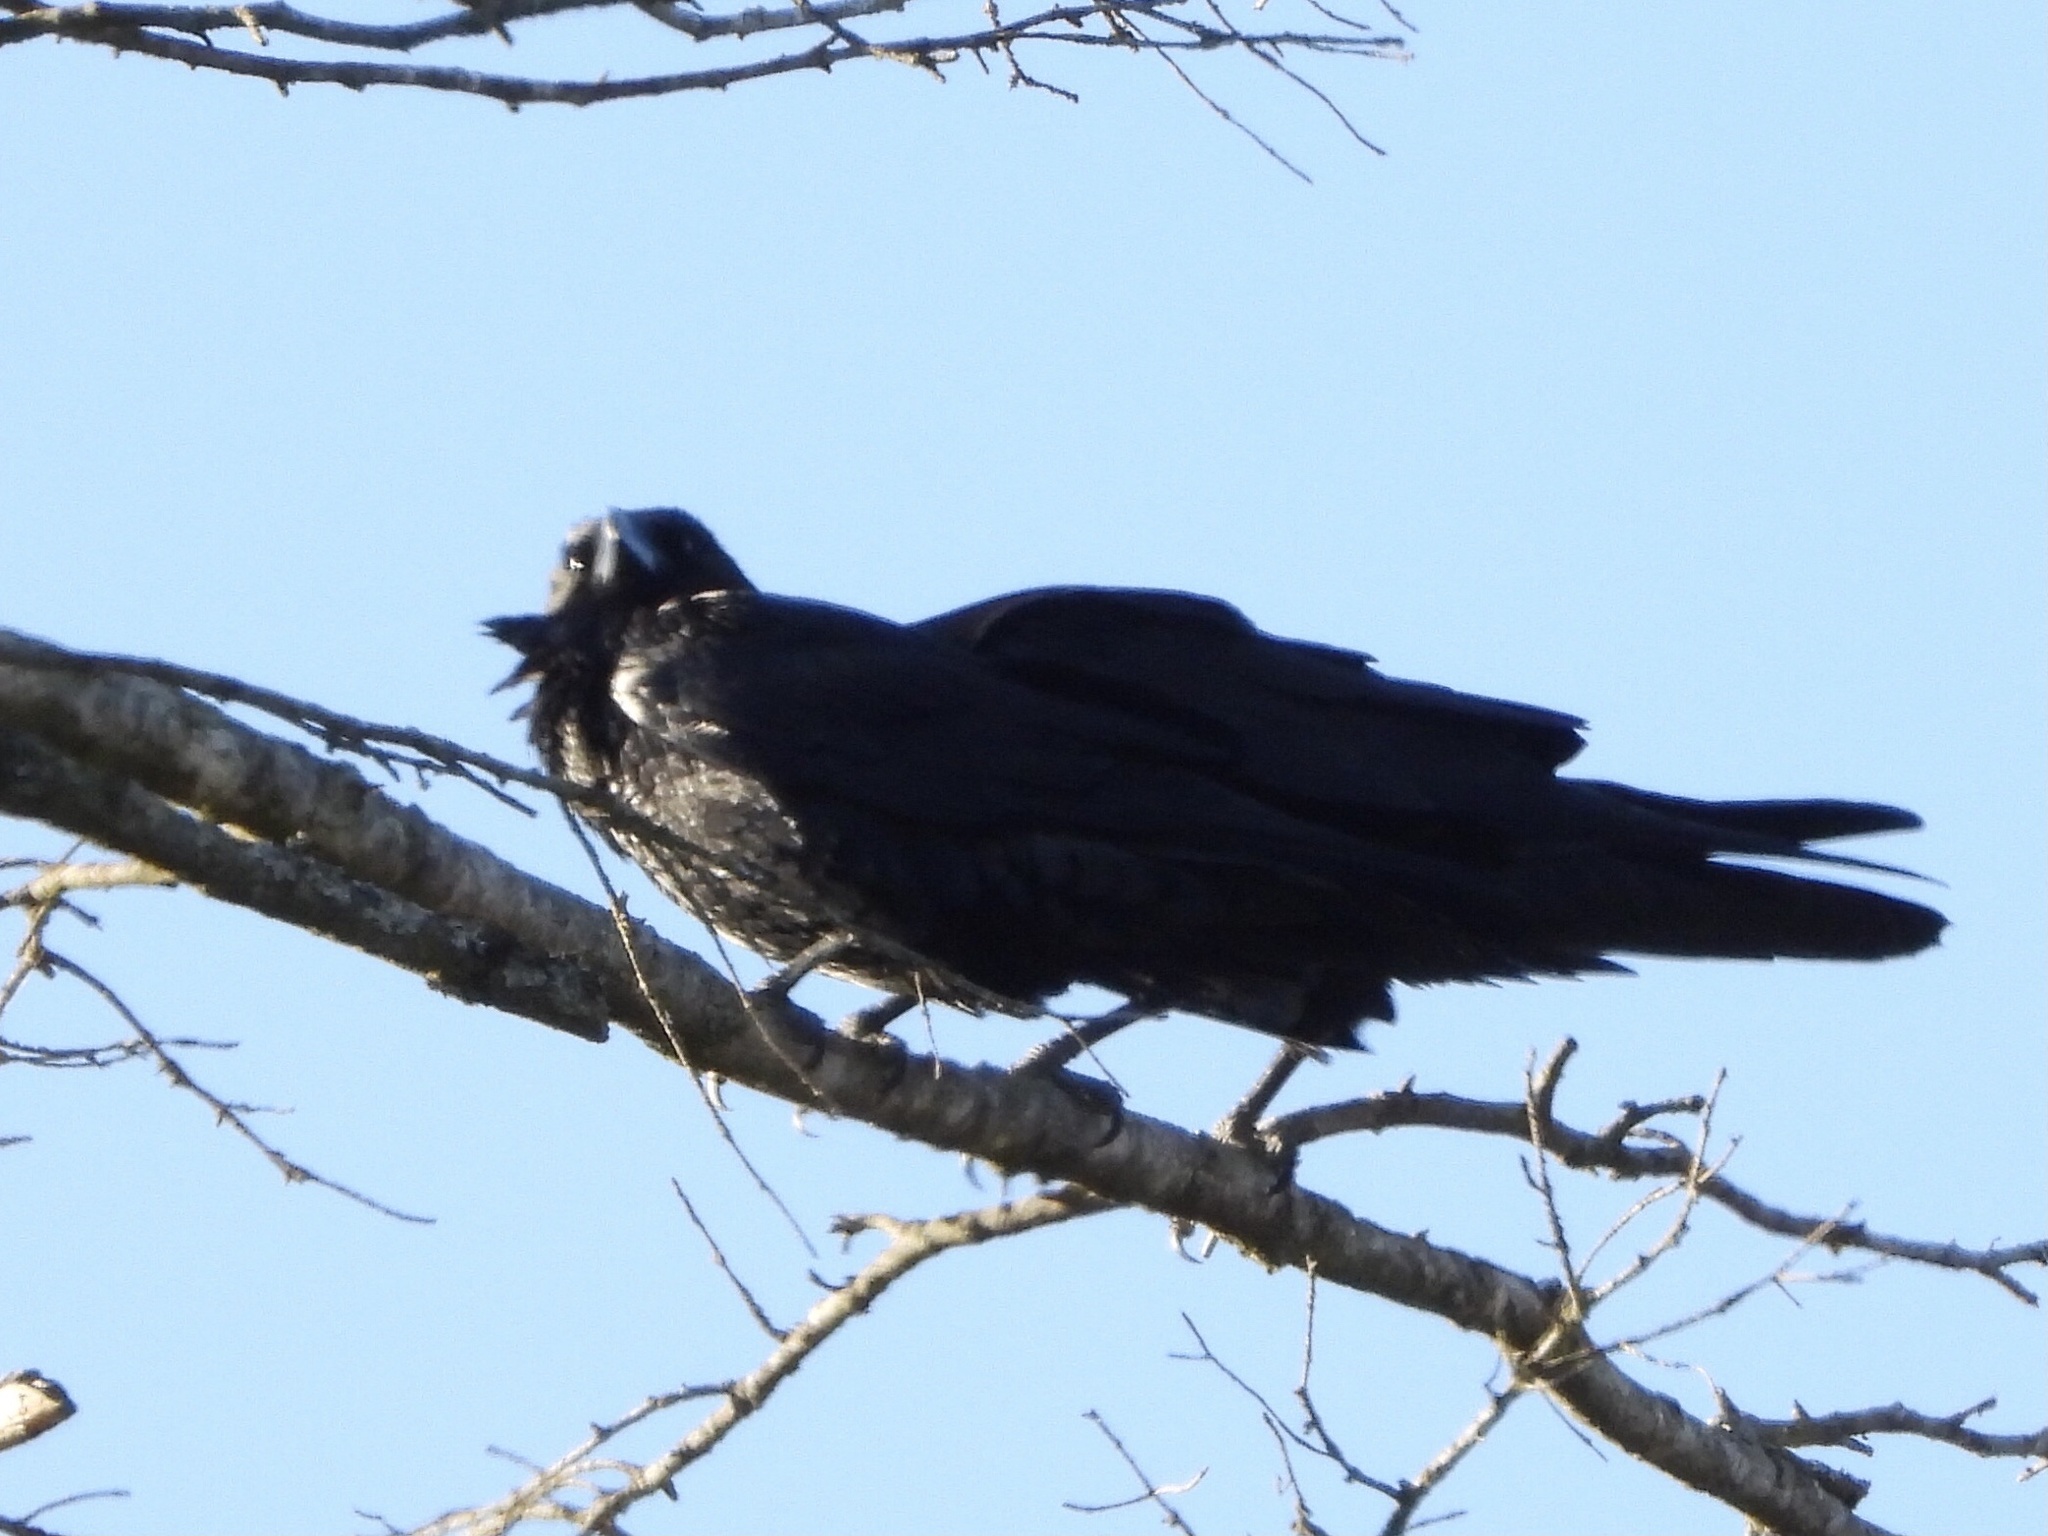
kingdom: Animalia
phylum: Chordata
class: Aves
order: Passeriformes
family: Corvidae
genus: Corvus
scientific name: Corvus corax
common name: Common raven
